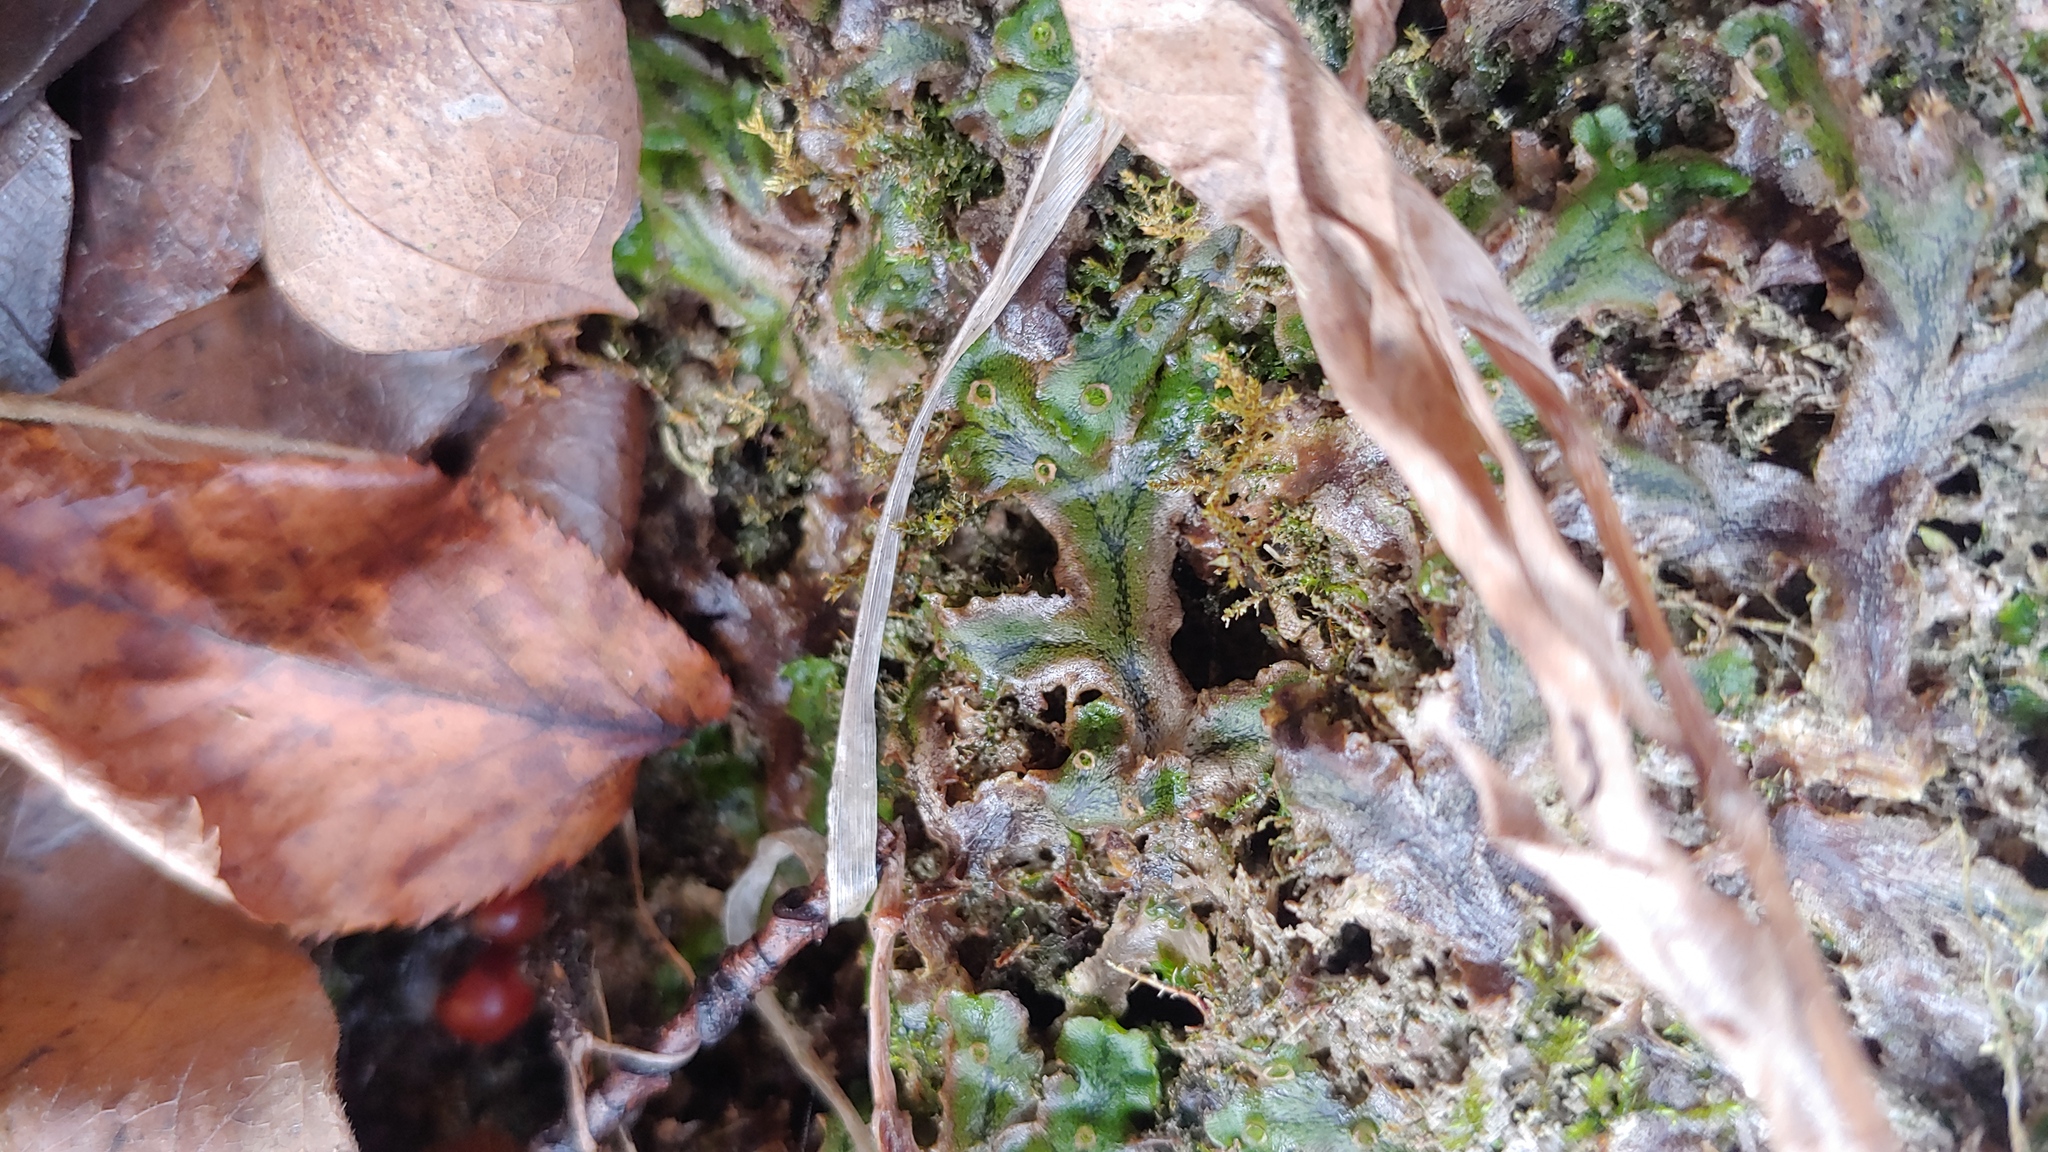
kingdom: Plantae
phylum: Marchantiophyta
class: Marchantiopsida
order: Marchantiales
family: Marchantiaceae
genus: Marchantia
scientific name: Marchantia polymorpha
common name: Common liverwort
